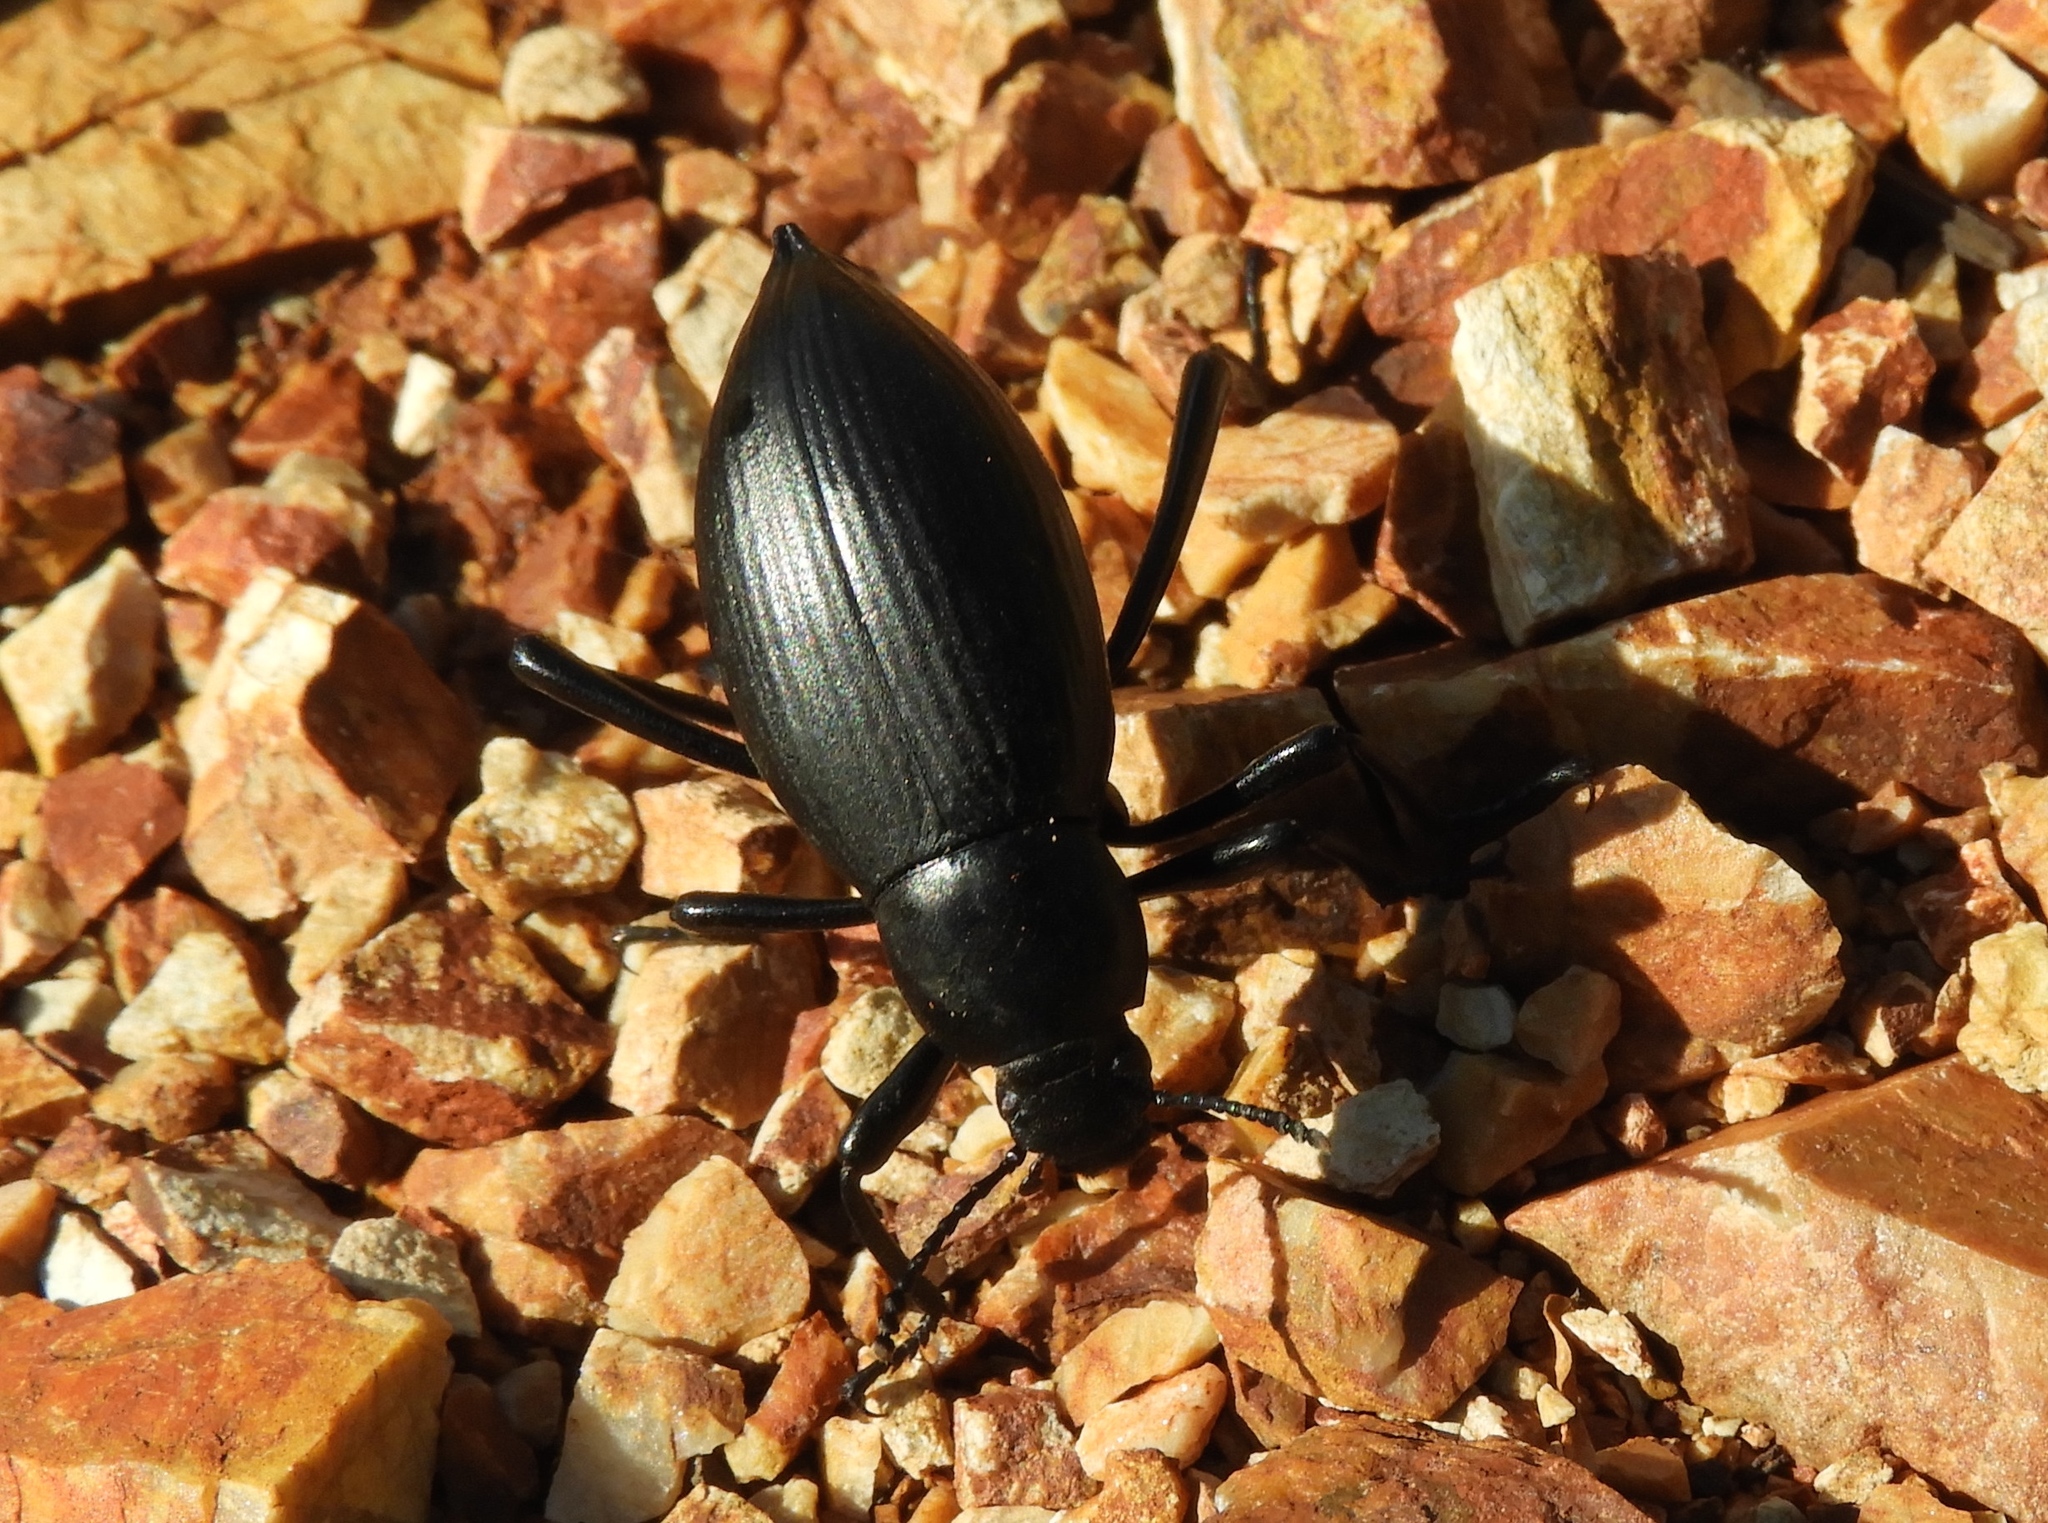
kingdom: Animalia
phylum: Arthropoda
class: Insecta
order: Coleoptera
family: Tenebrionidae
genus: Eleodes
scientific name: Eleodes eschscholtzii
